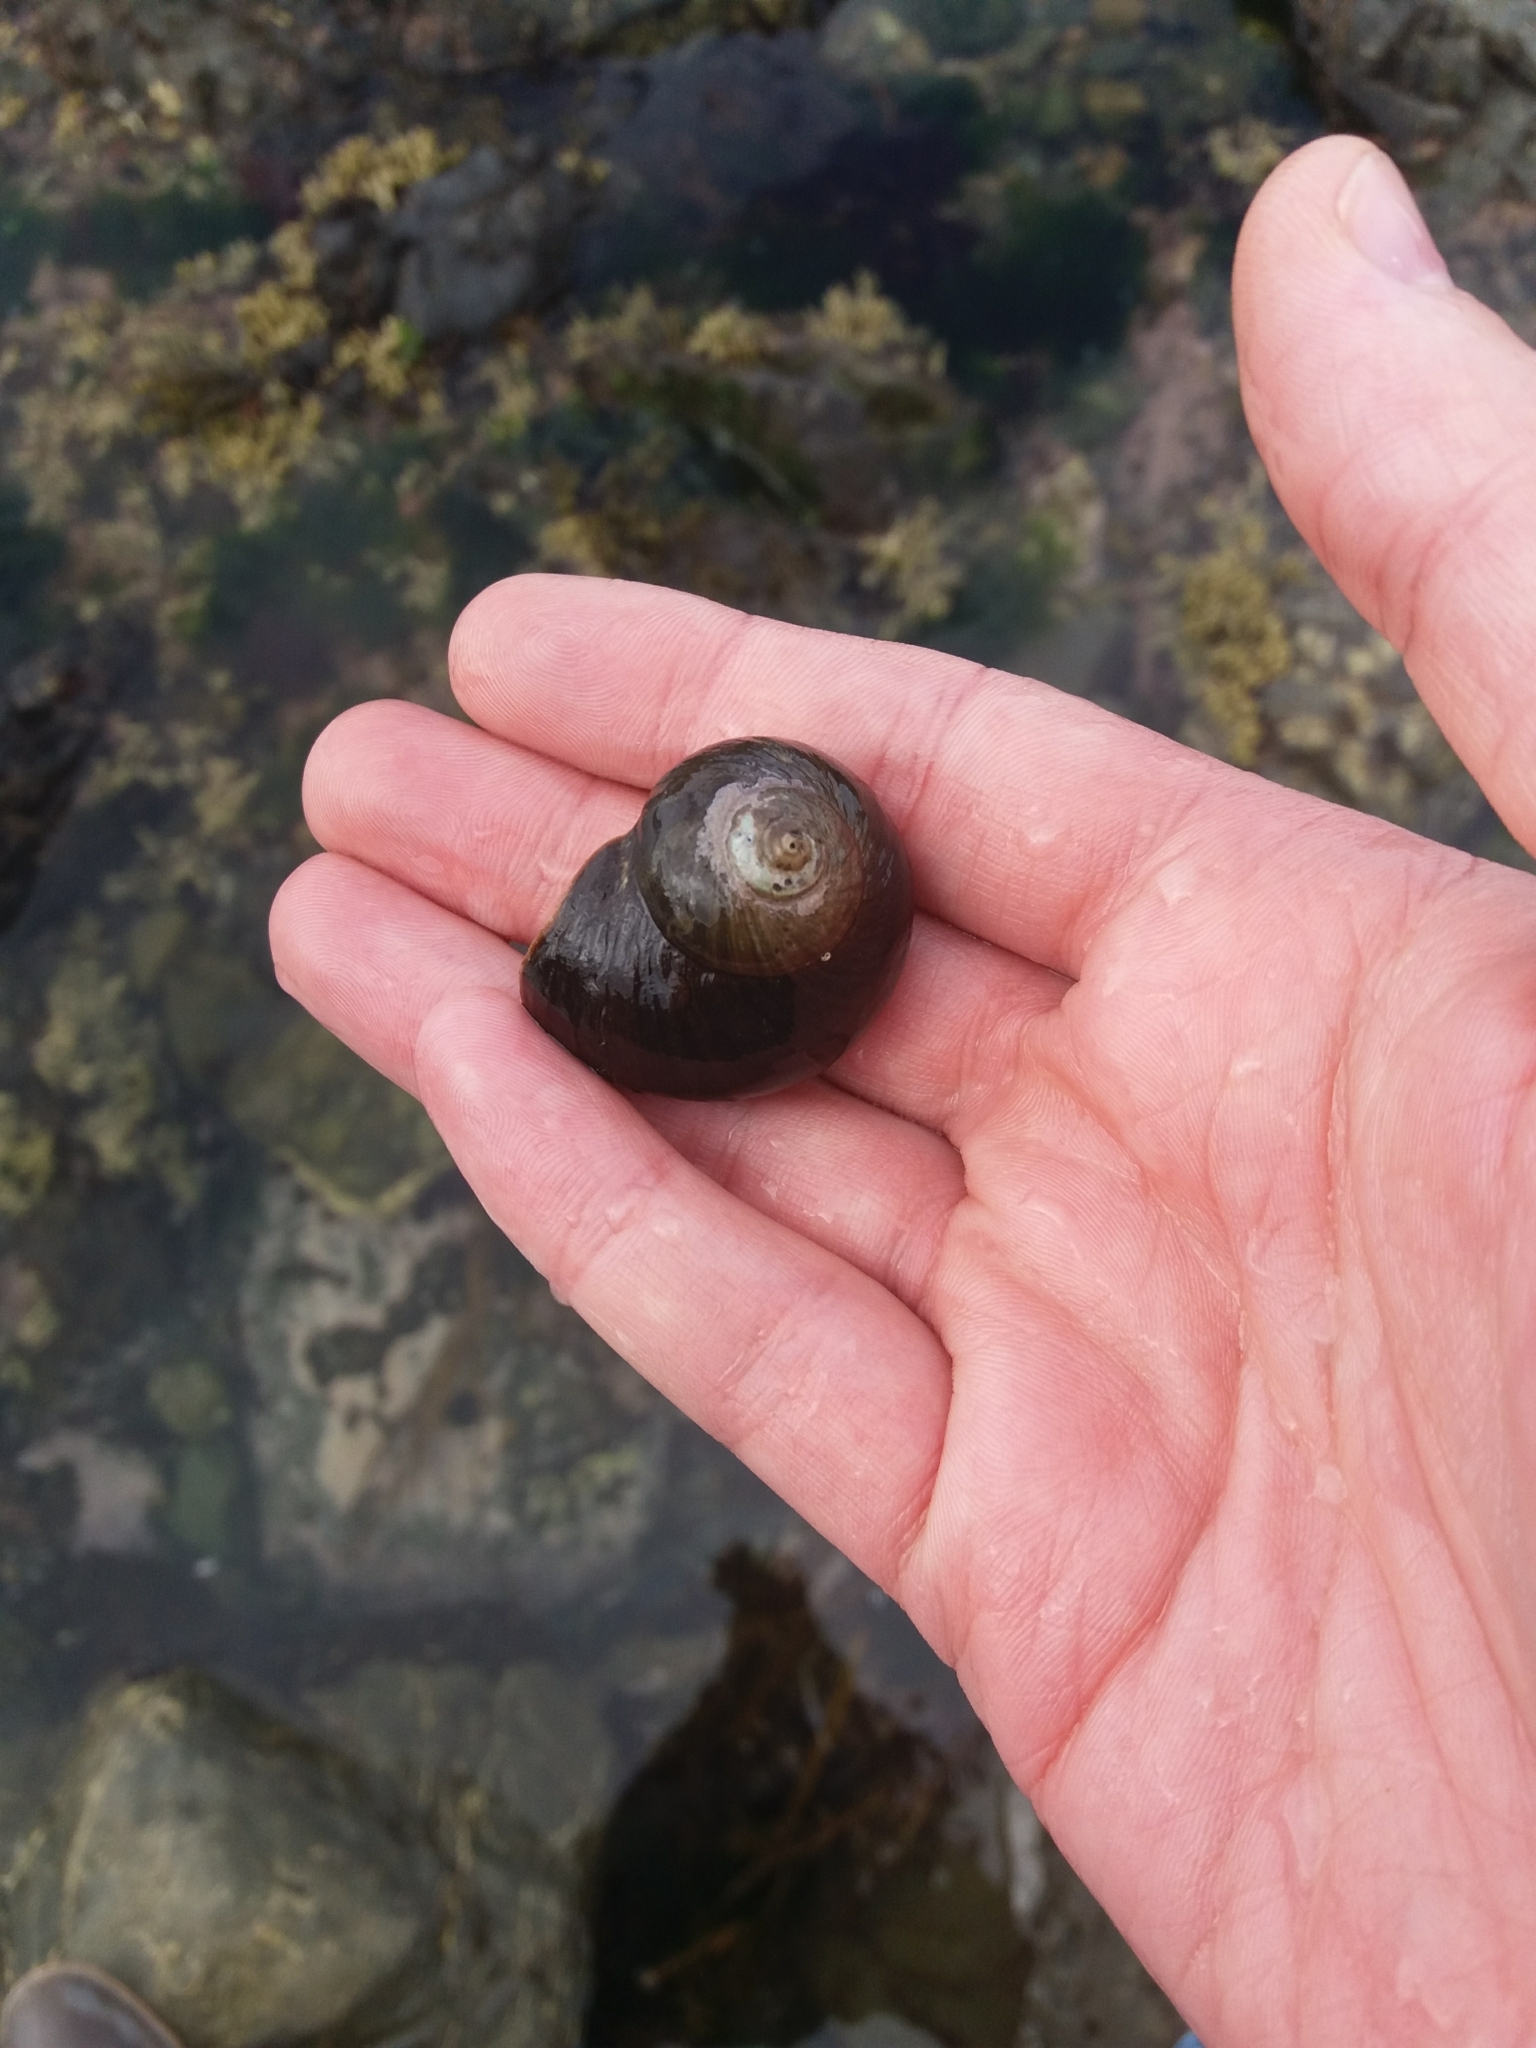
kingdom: Animalia
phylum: Mollusca
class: Gastropoda
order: Trochida
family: Turbinidae
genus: Lunella
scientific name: Lunella smaragda
